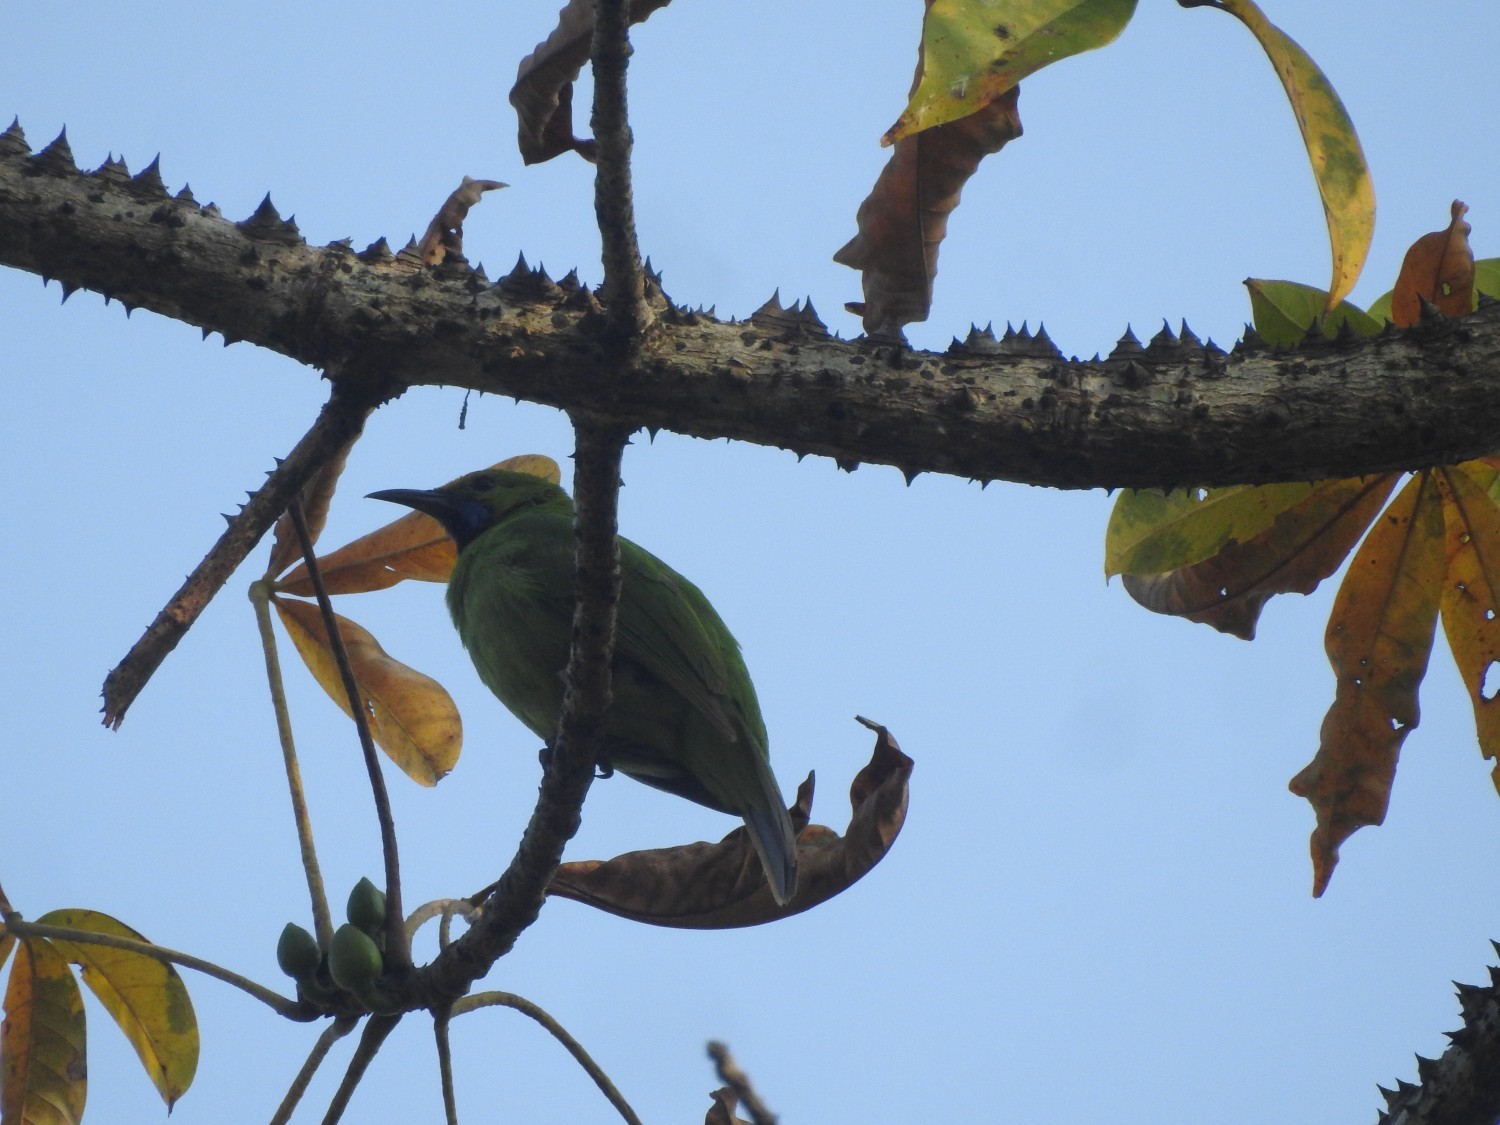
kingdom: Animalia
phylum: Chordata
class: Aves
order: Passeriformes
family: Chloropseidae
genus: Chloropsis
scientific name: Chloropsis jerdoni
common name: Jerdon's leafbird
